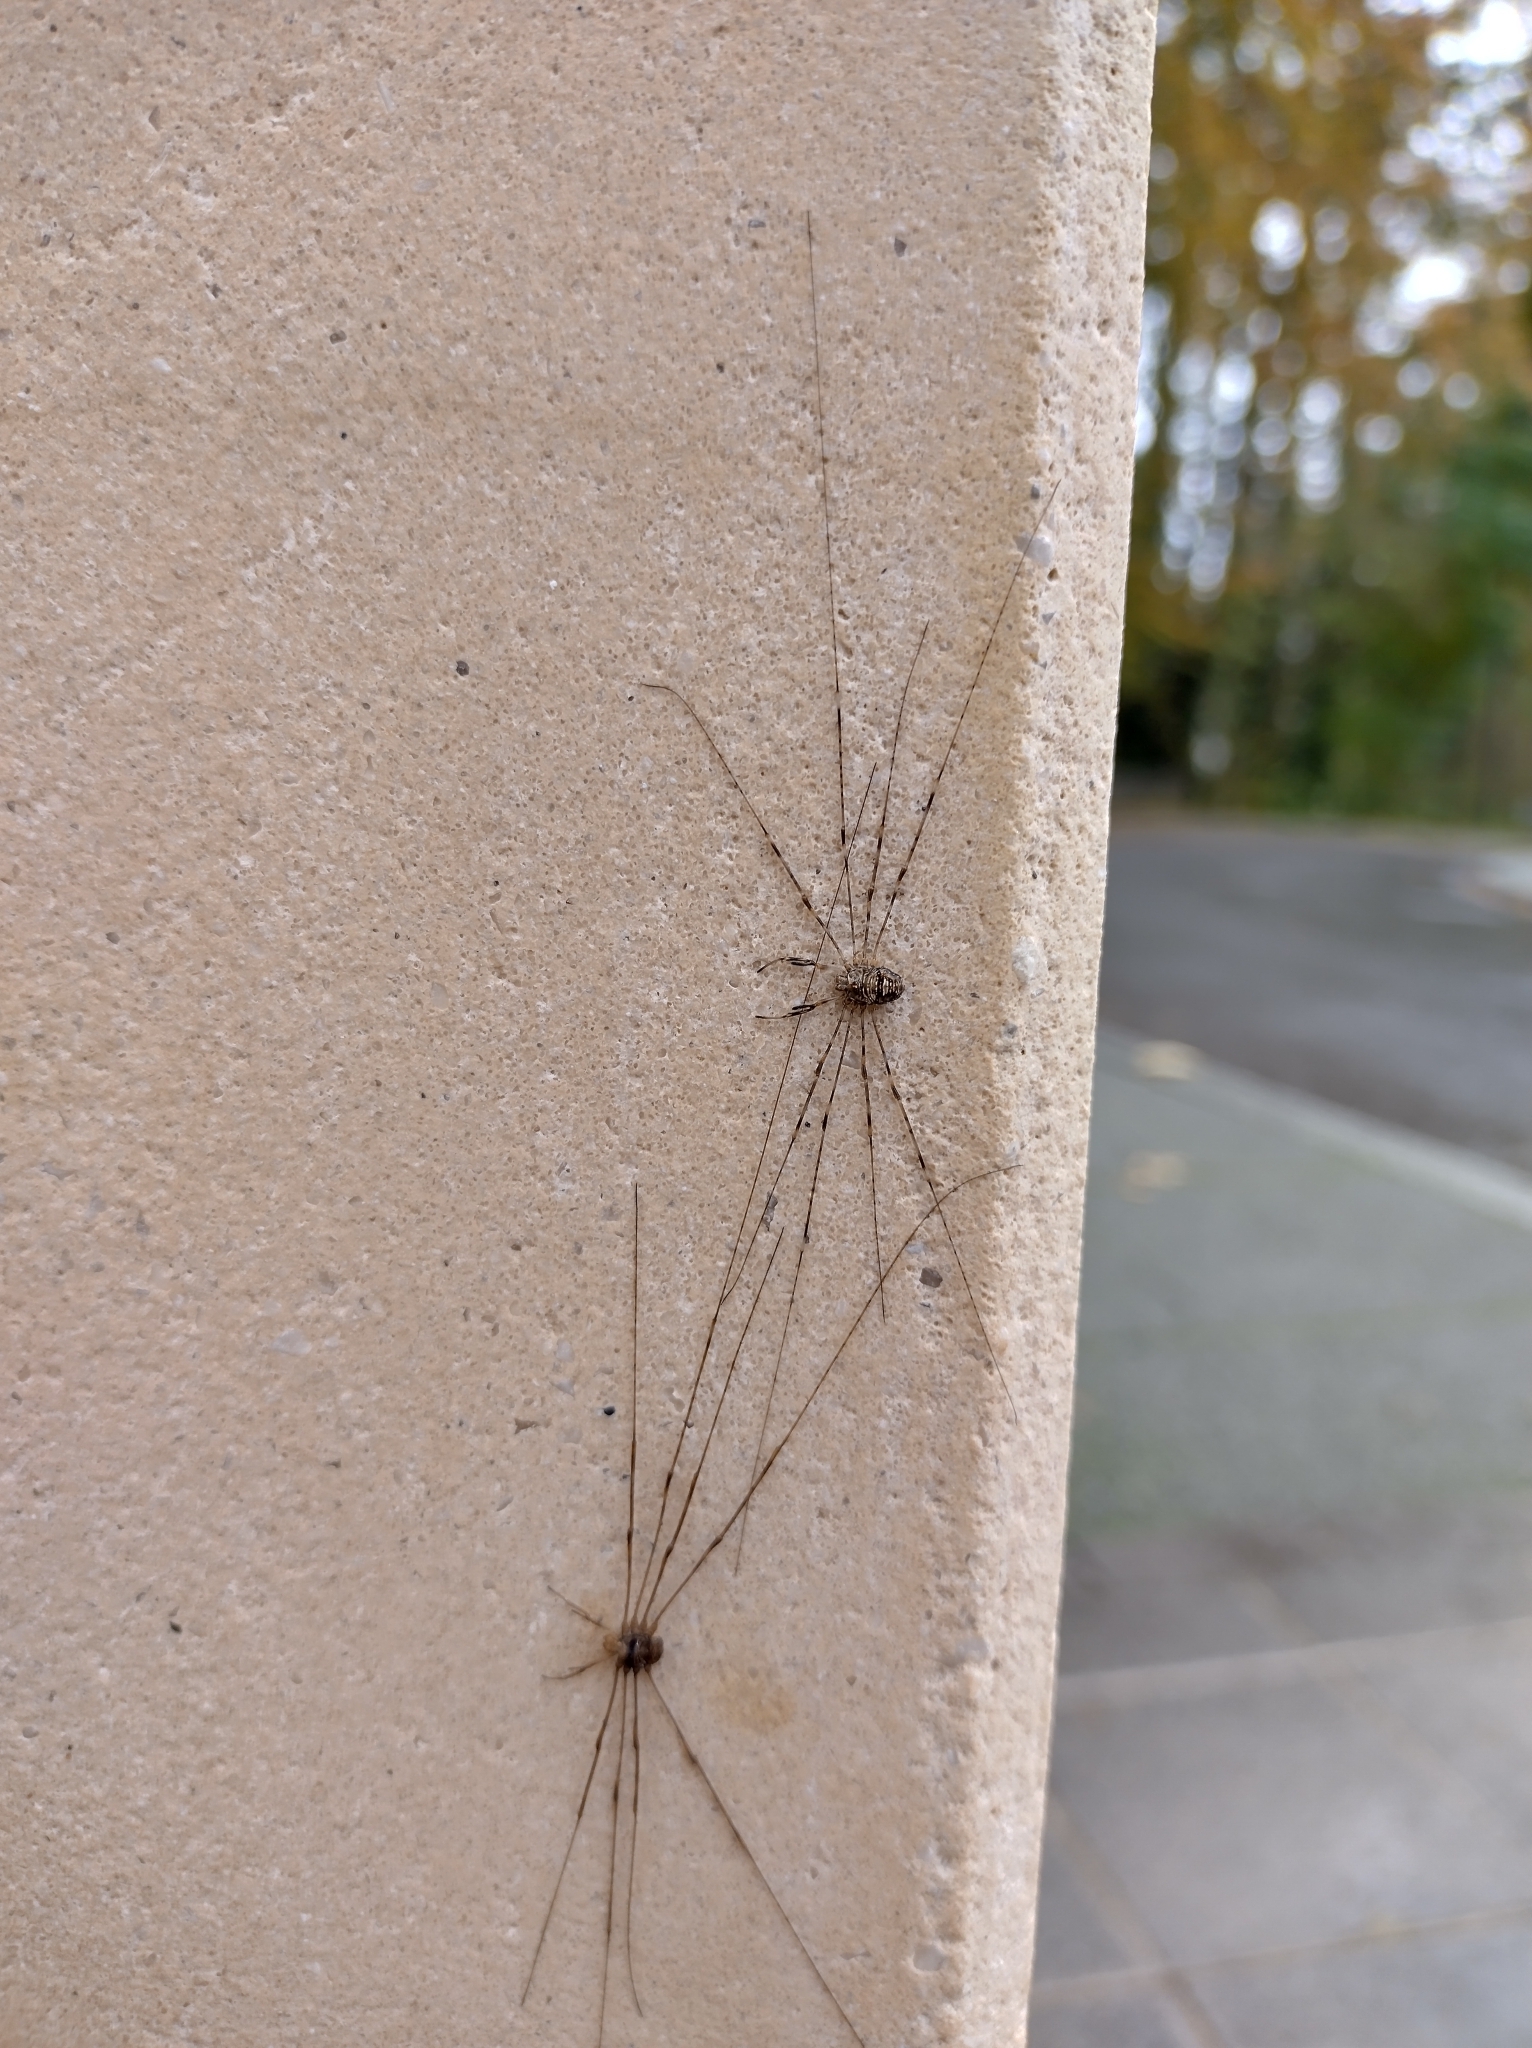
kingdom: Animalia
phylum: Arthropoda
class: Arachnida
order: Opiliones
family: Phalangiidae
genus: Dicranopalpus
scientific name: Dicranopalpus ramosus
